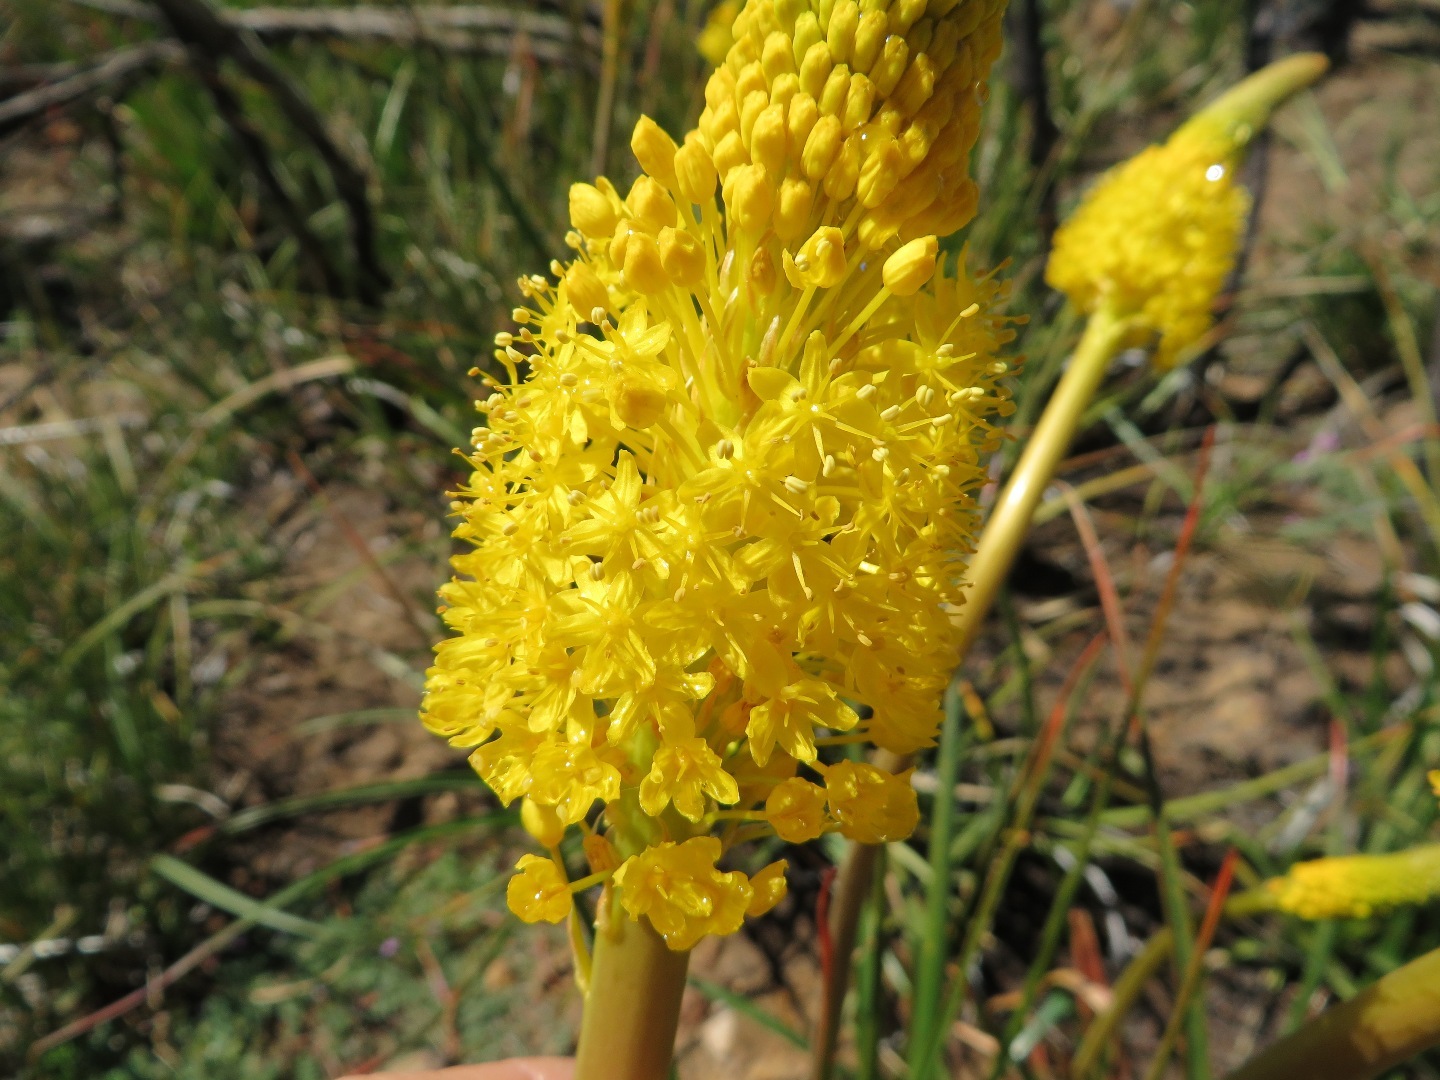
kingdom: Plantae
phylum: Tracheophyta
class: Liliopsida
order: Asparagales
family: Asphodelaceae
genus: Bulbinella
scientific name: Bulbinella nutans
